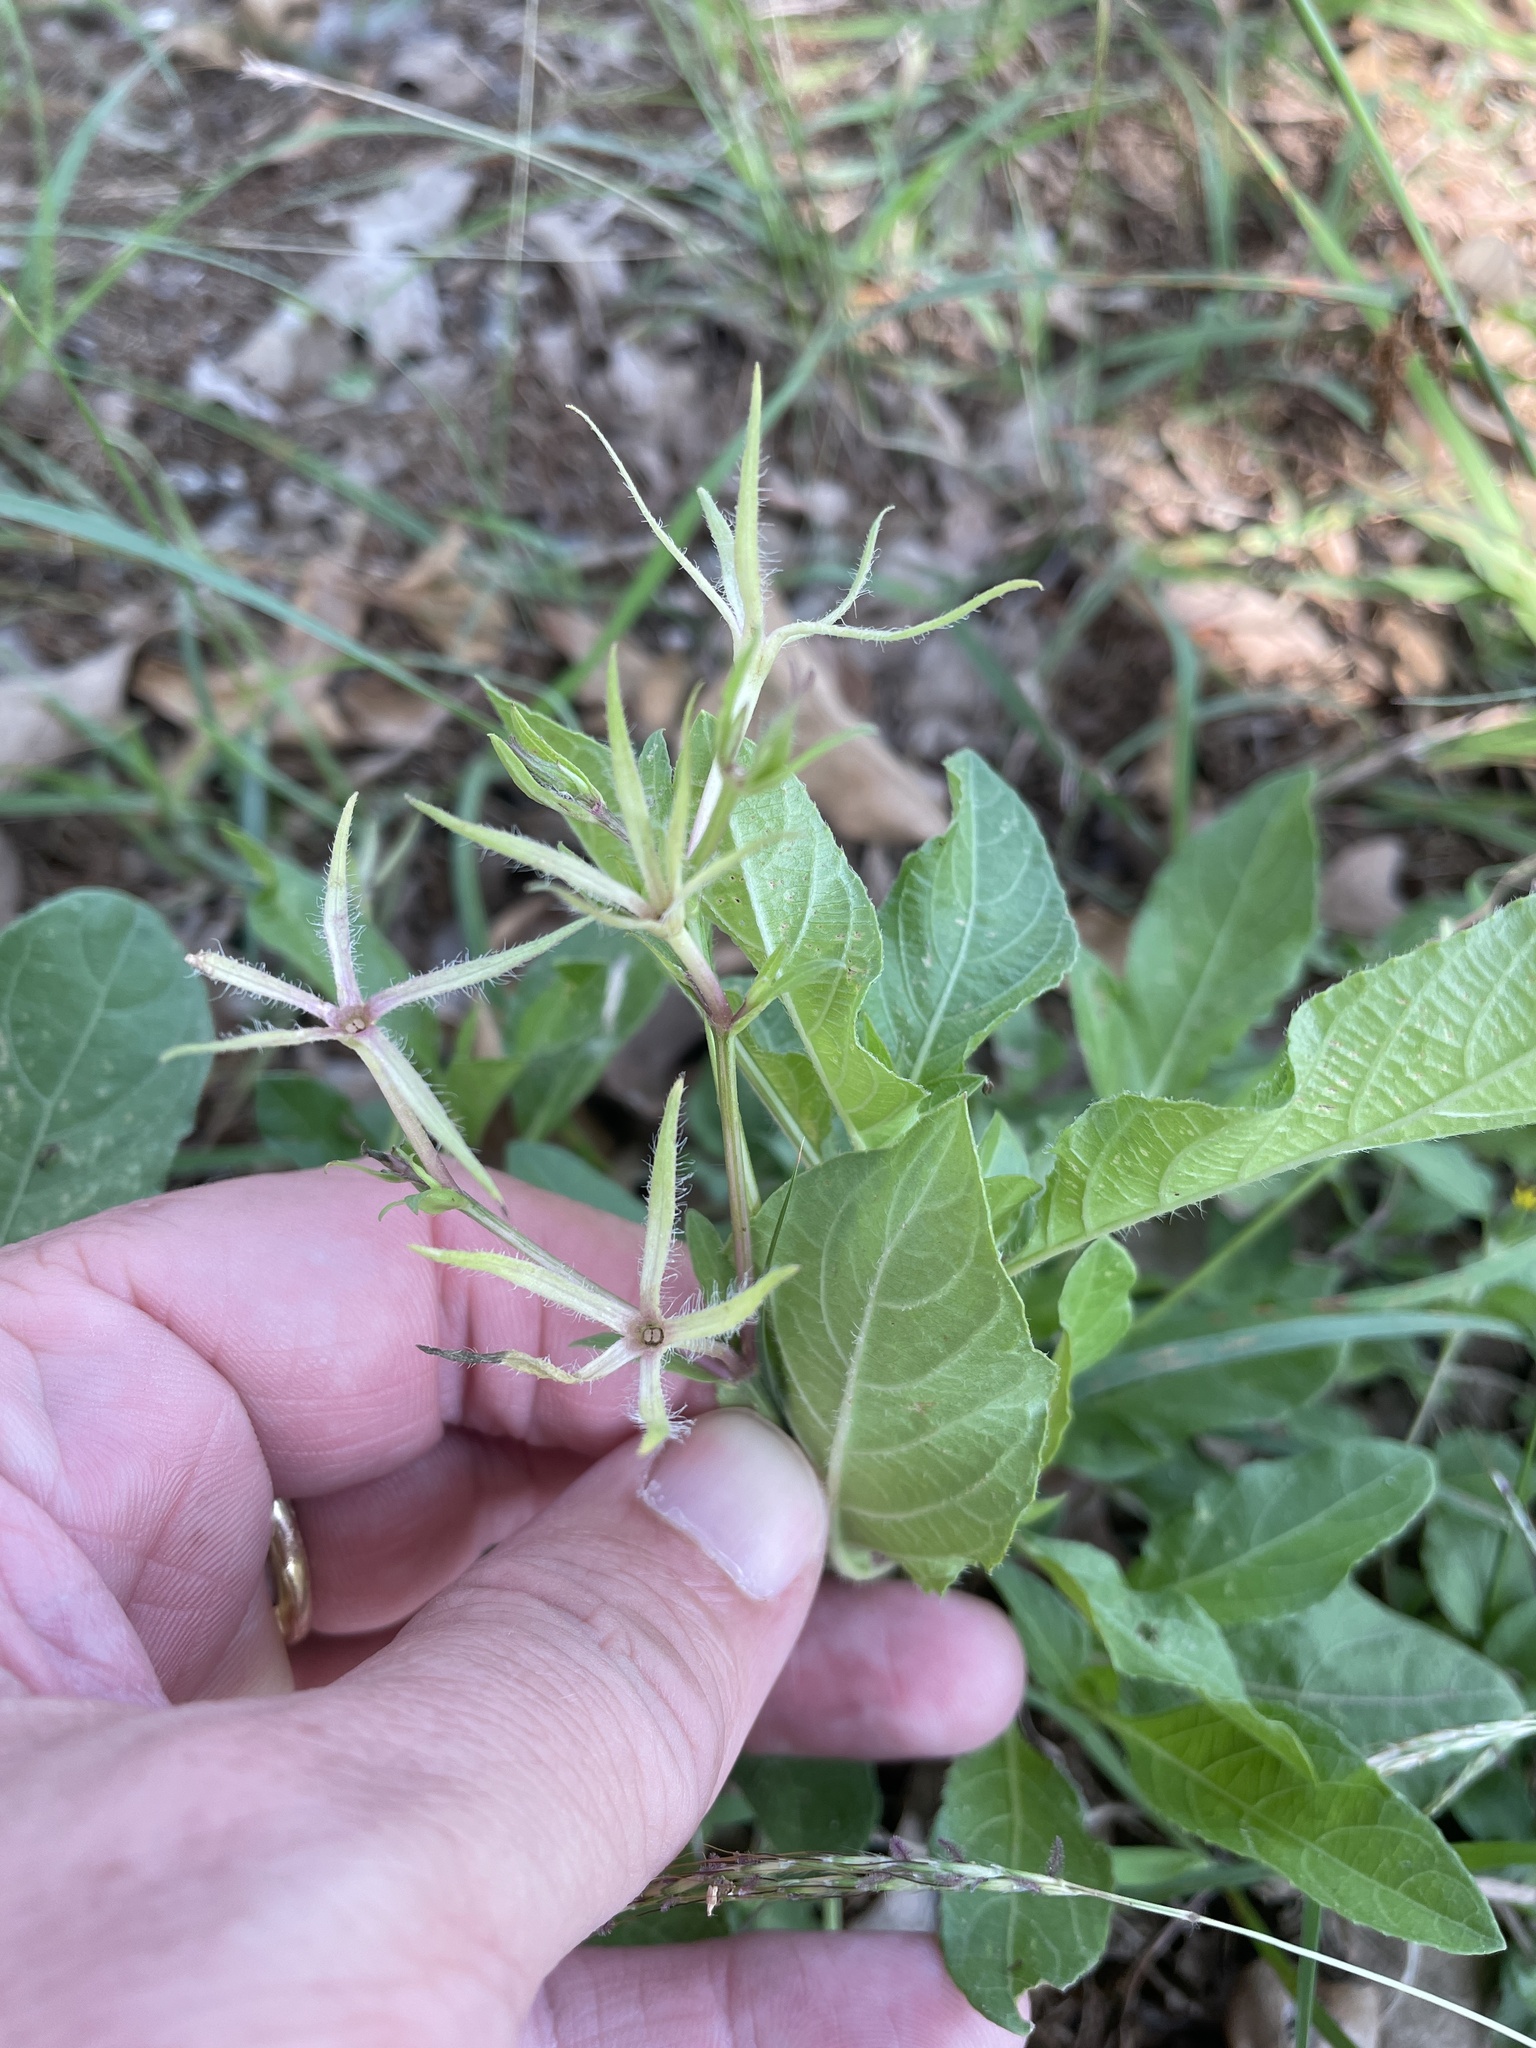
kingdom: Plantae
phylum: Tracheophyta
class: Magnoliopsida
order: Lamiales
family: Acanthaceae
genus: Ruellia
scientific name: Ruellia ciliatiflora
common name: Hairyflower wild petunia
